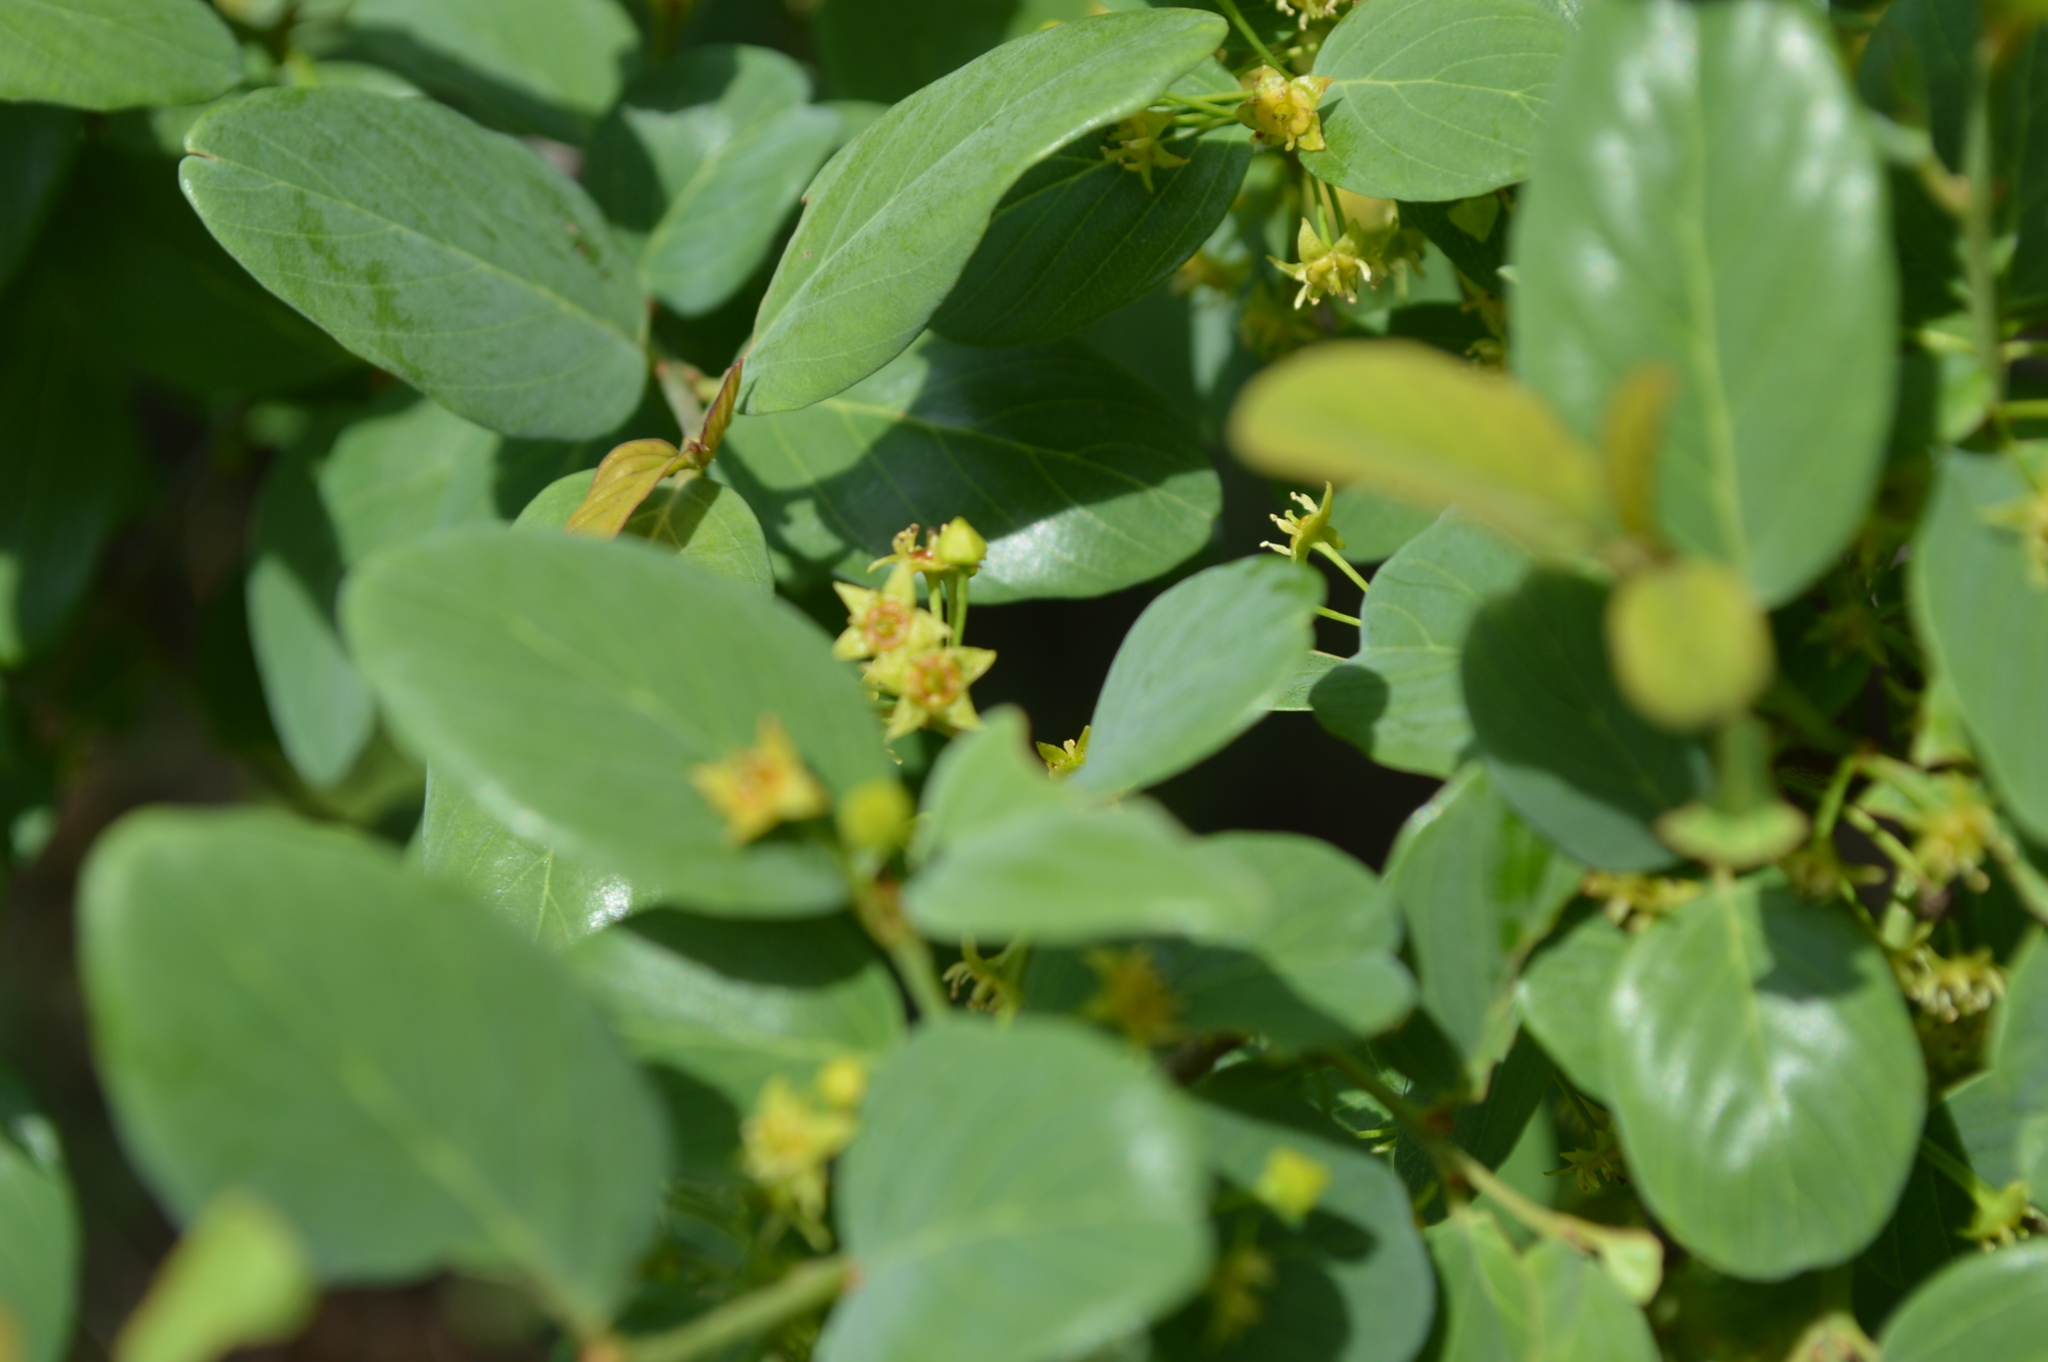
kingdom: Plantae
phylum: Tracheophyta
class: Magnoliopsida
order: Rosales
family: Rhamnaceae
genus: Phyllogeiton
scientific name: Phyllogeiton zeyheri
